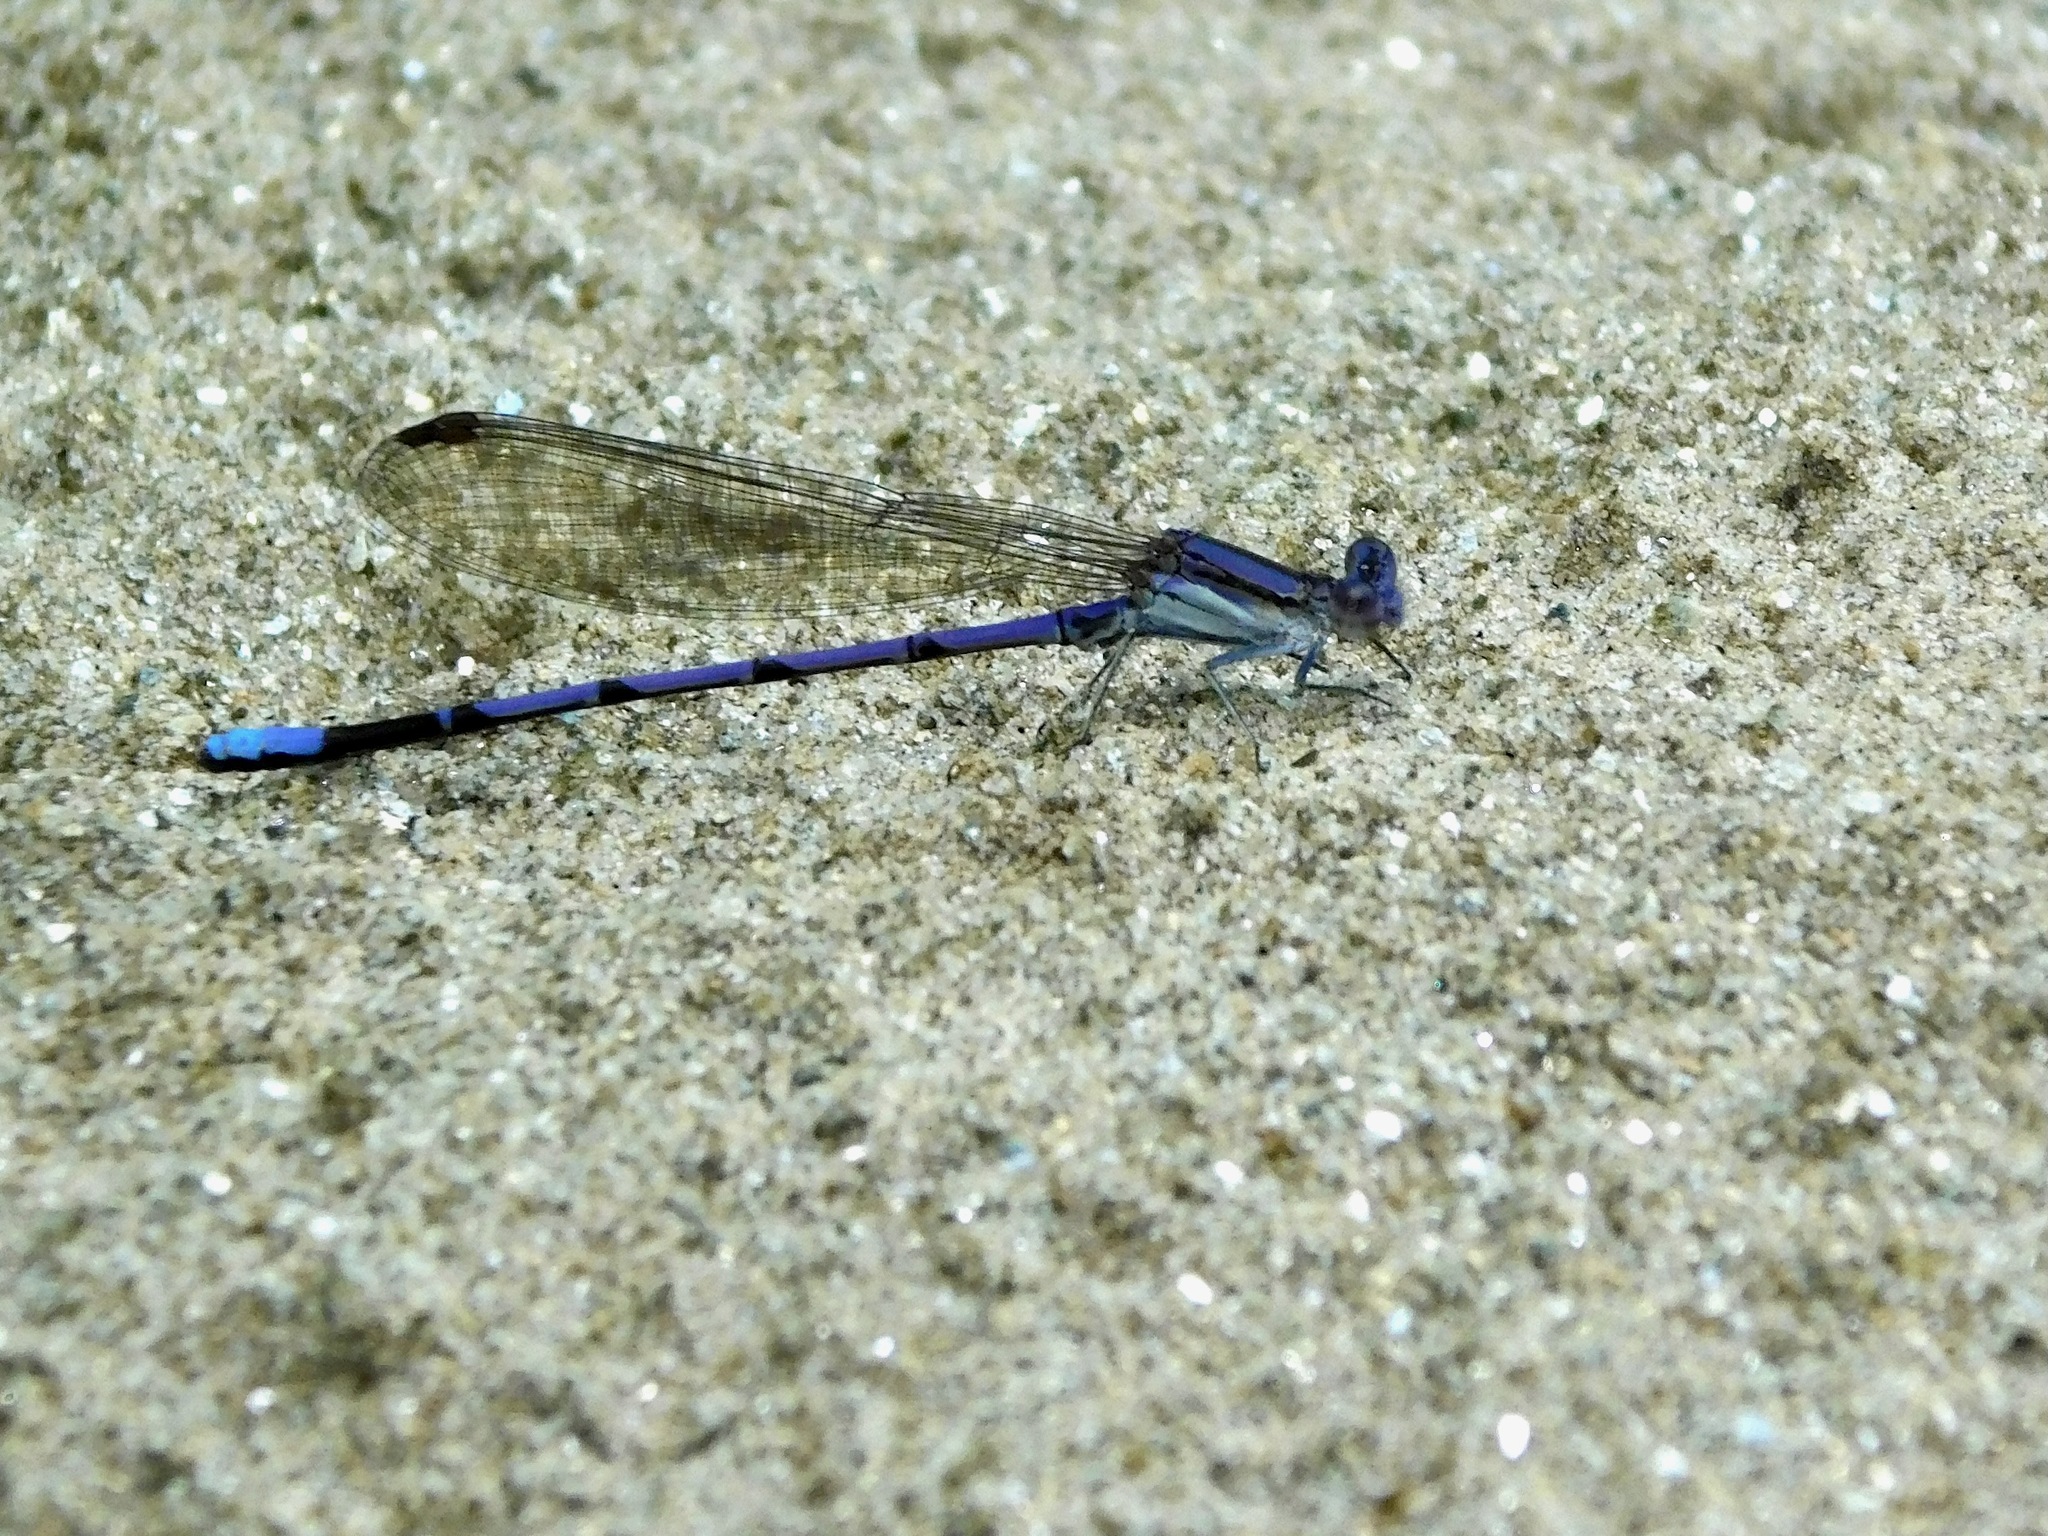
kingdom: Animalia
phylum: Arthropoda
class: Insecta
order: Odonata
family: Coenagrionidae
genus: Argia
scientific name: Argia fumipennis
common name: Variable dancer
